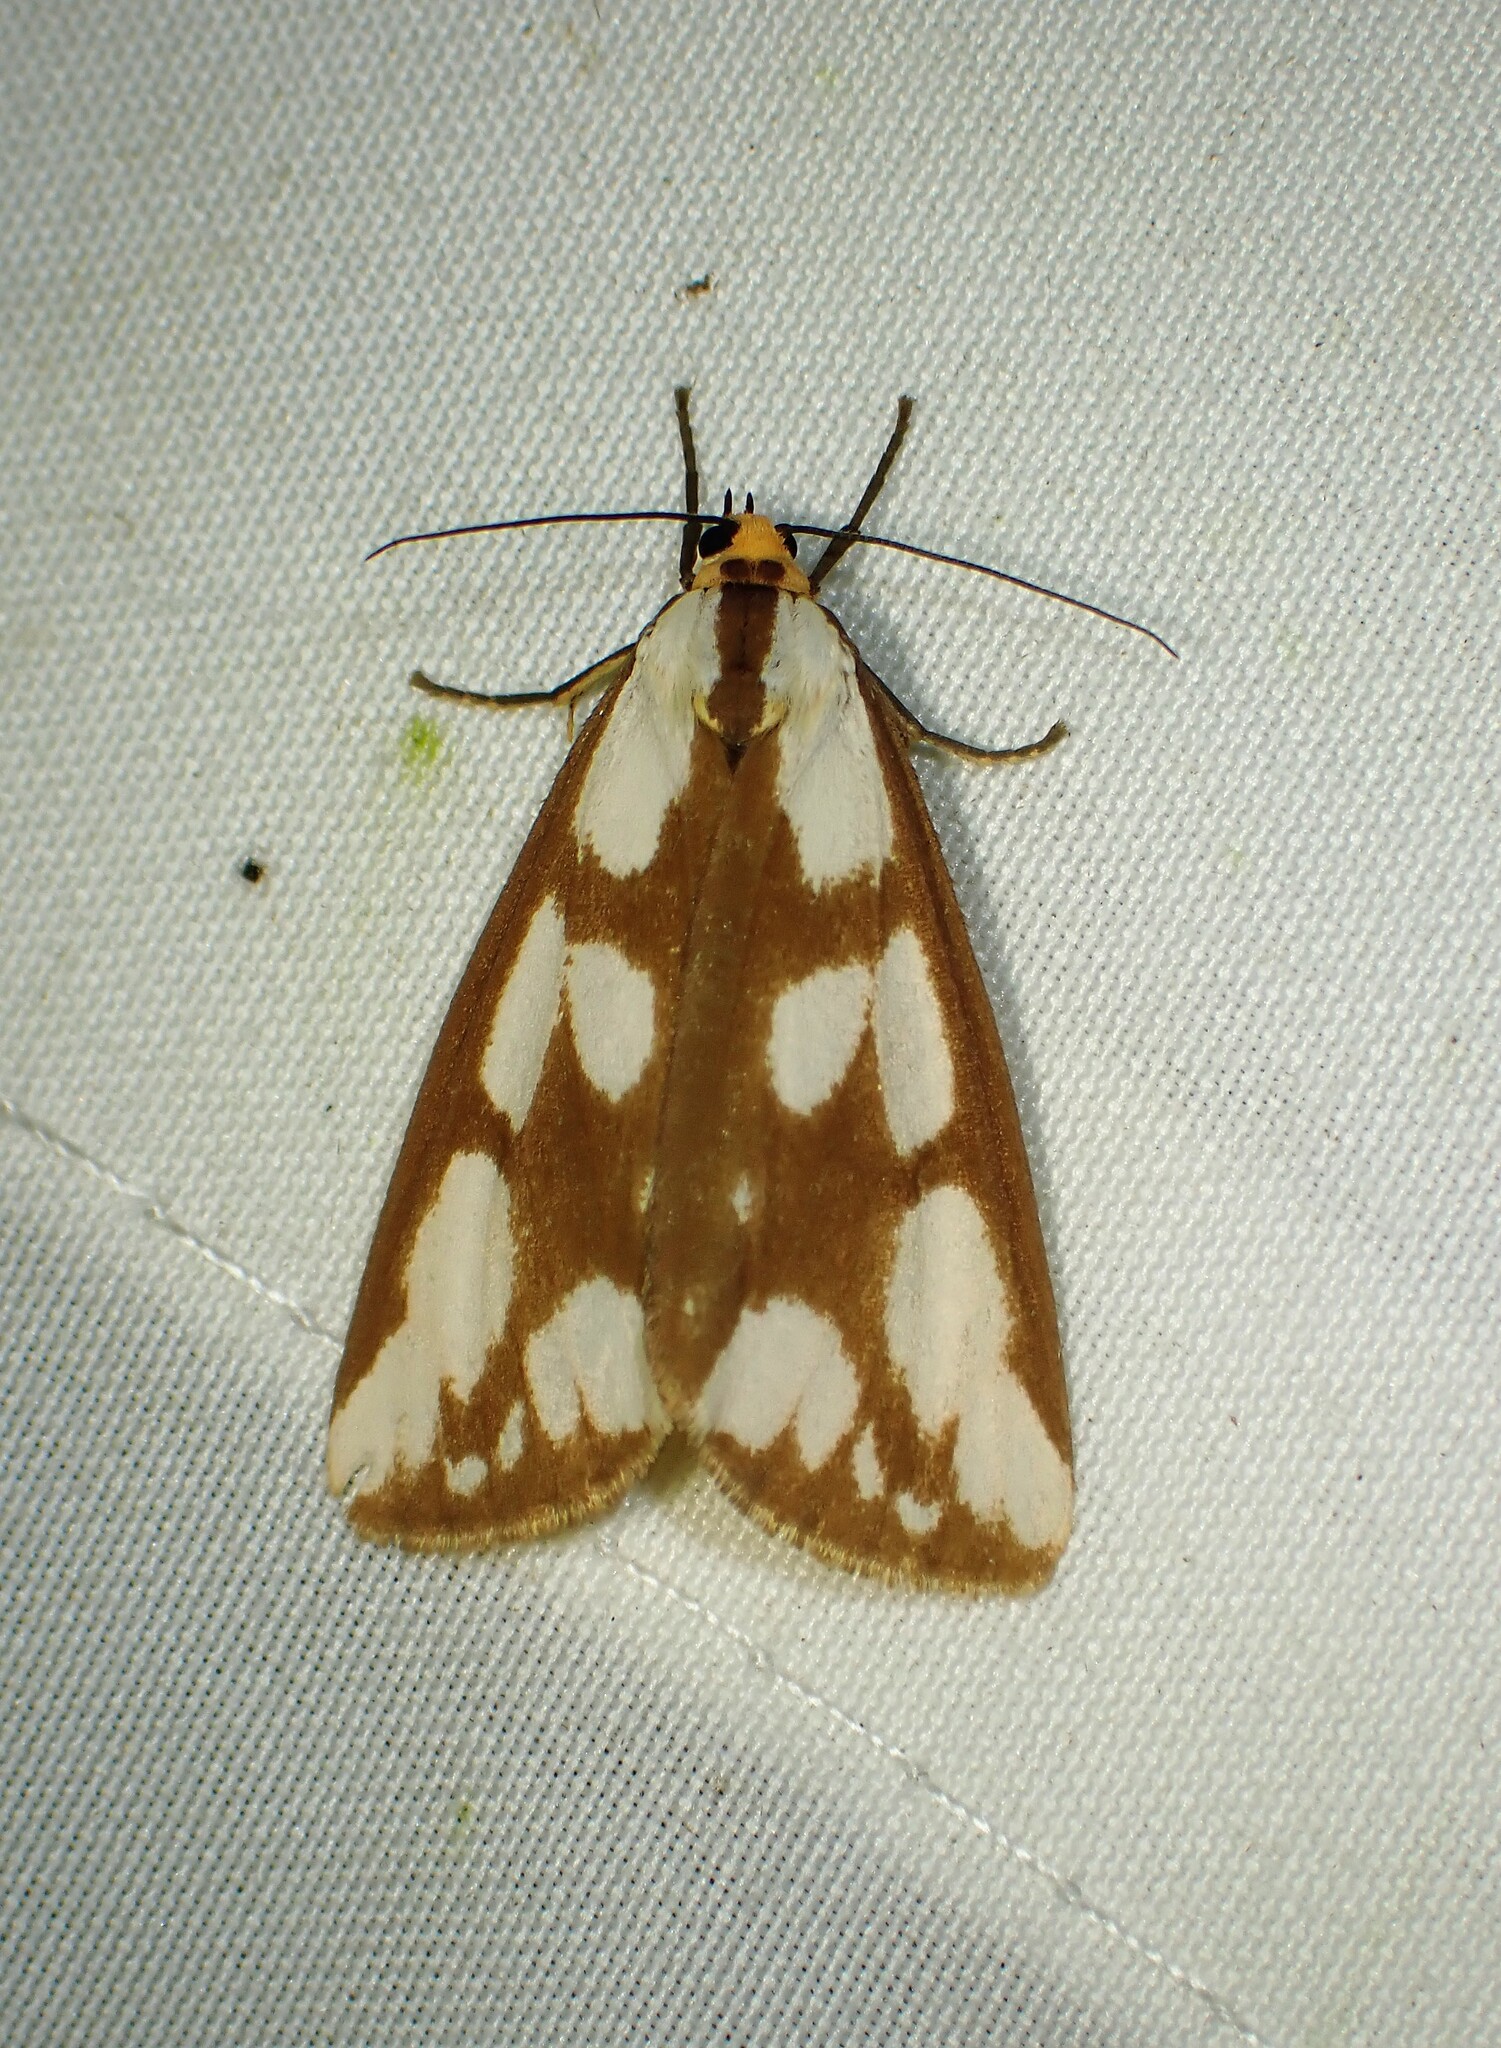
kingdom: Animalia
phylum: Arthropoda
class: Insecta
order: Lepidoptera
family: Erebidae
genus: Haploa
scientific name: Haploa confusa
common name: Confused haploa moth
